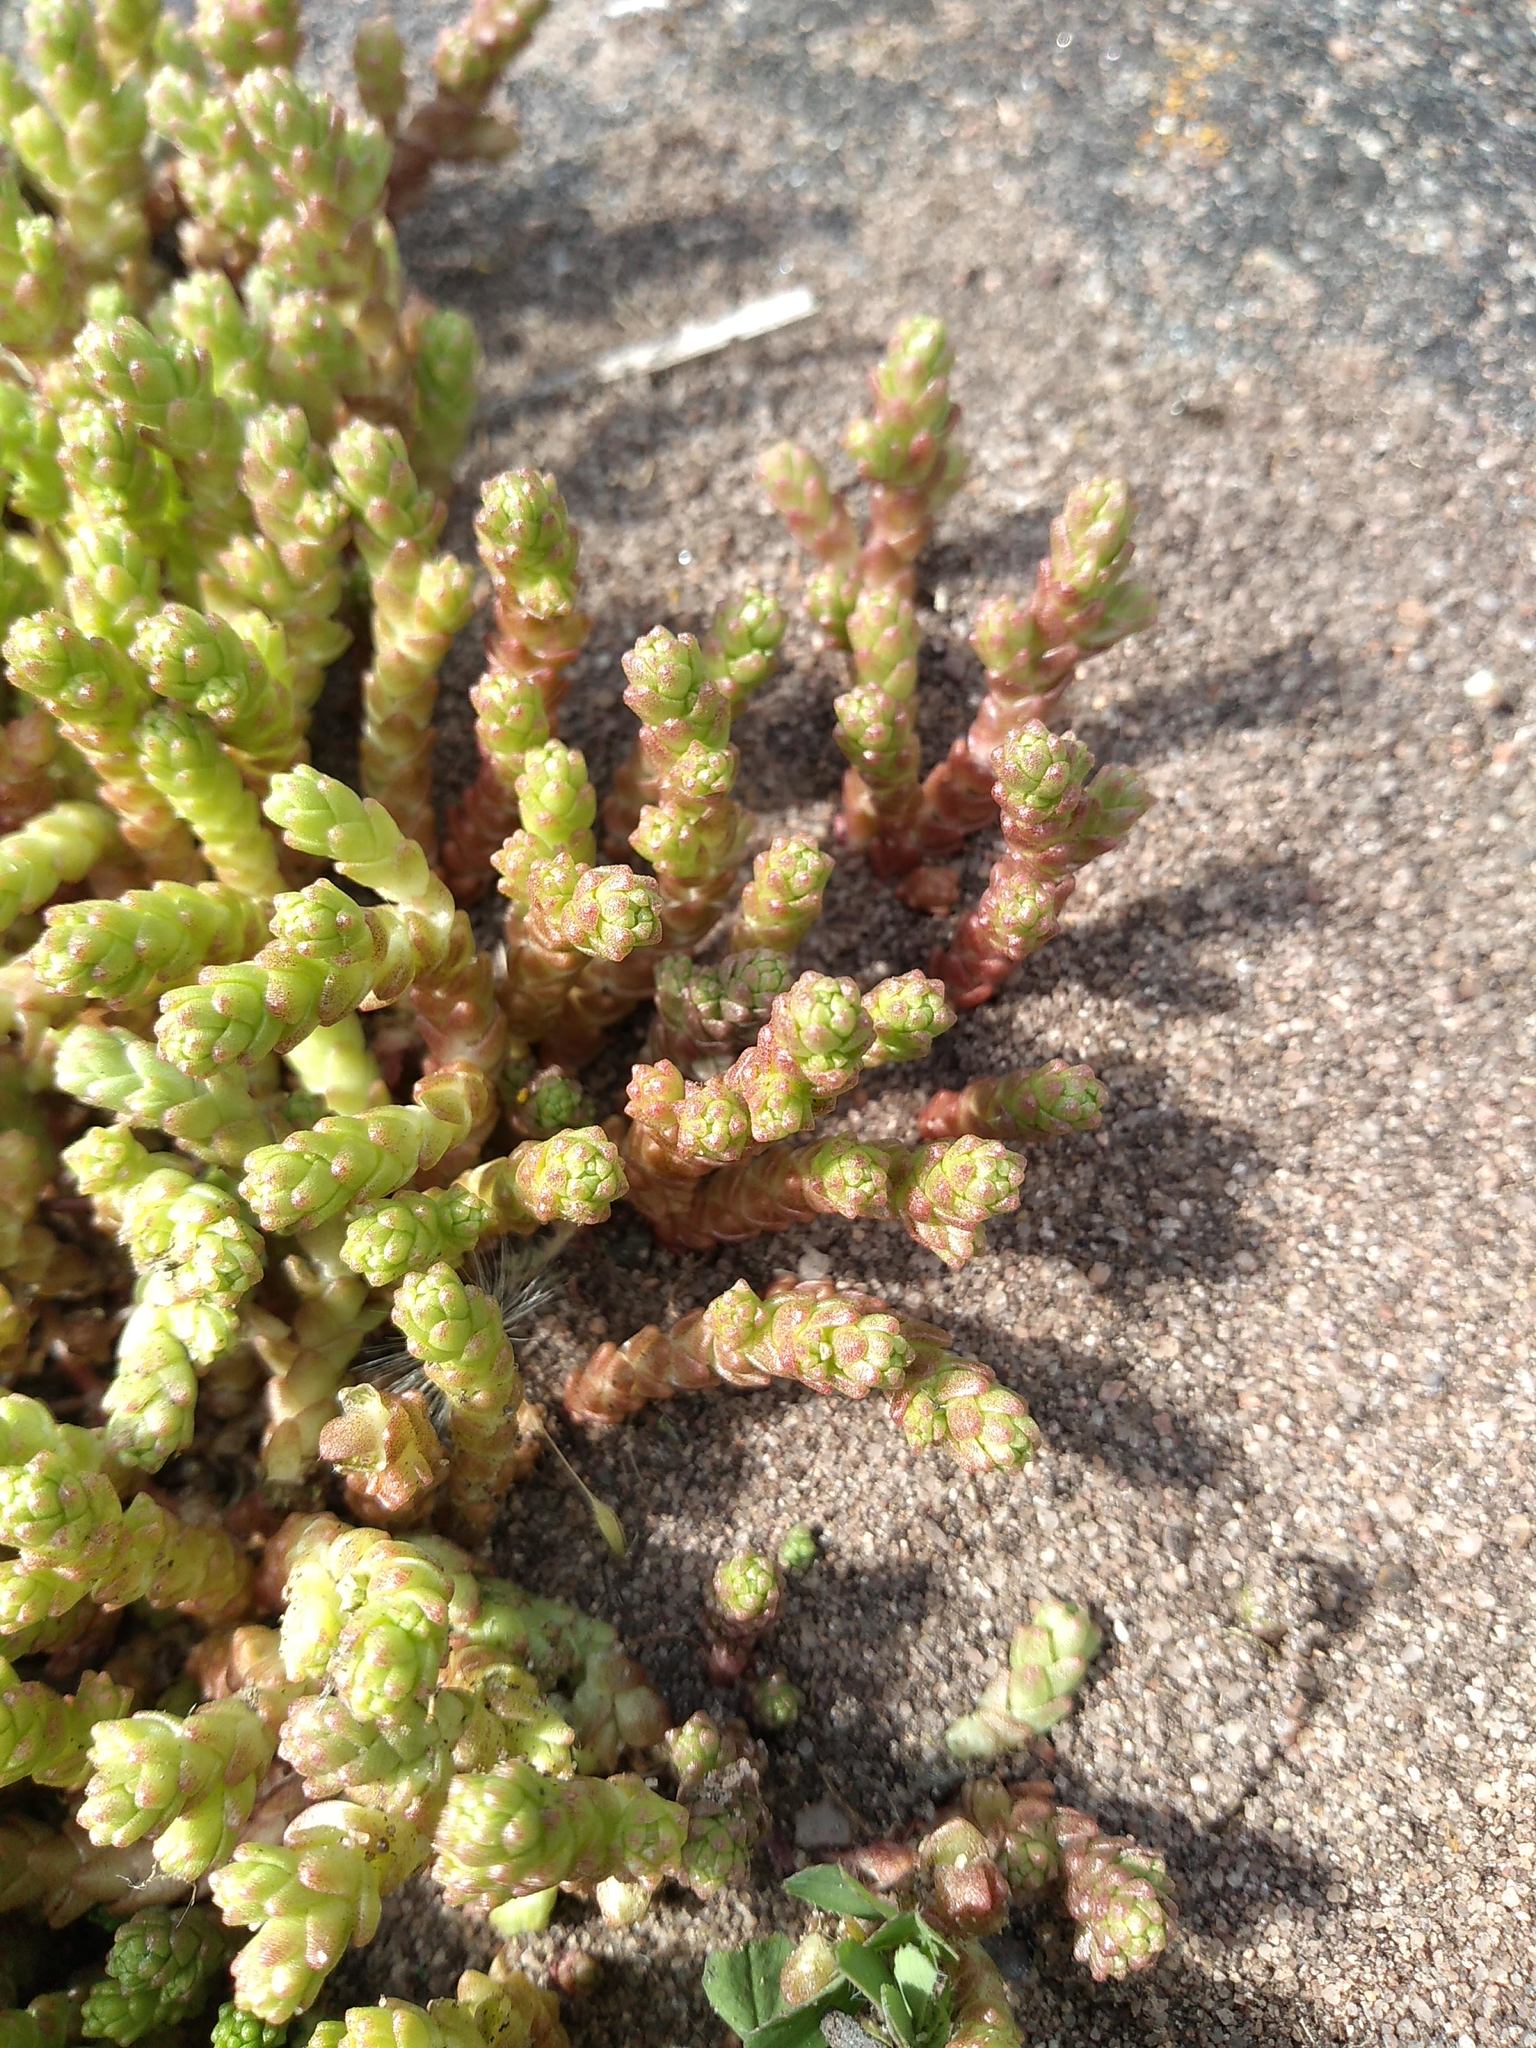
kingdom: Plantae
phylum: Tracheophyta
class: Magnoliopsida
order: Saxifragales
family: Crassulaceae
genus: Sedum
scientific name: Sedum acre
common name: Biting stonecrop
